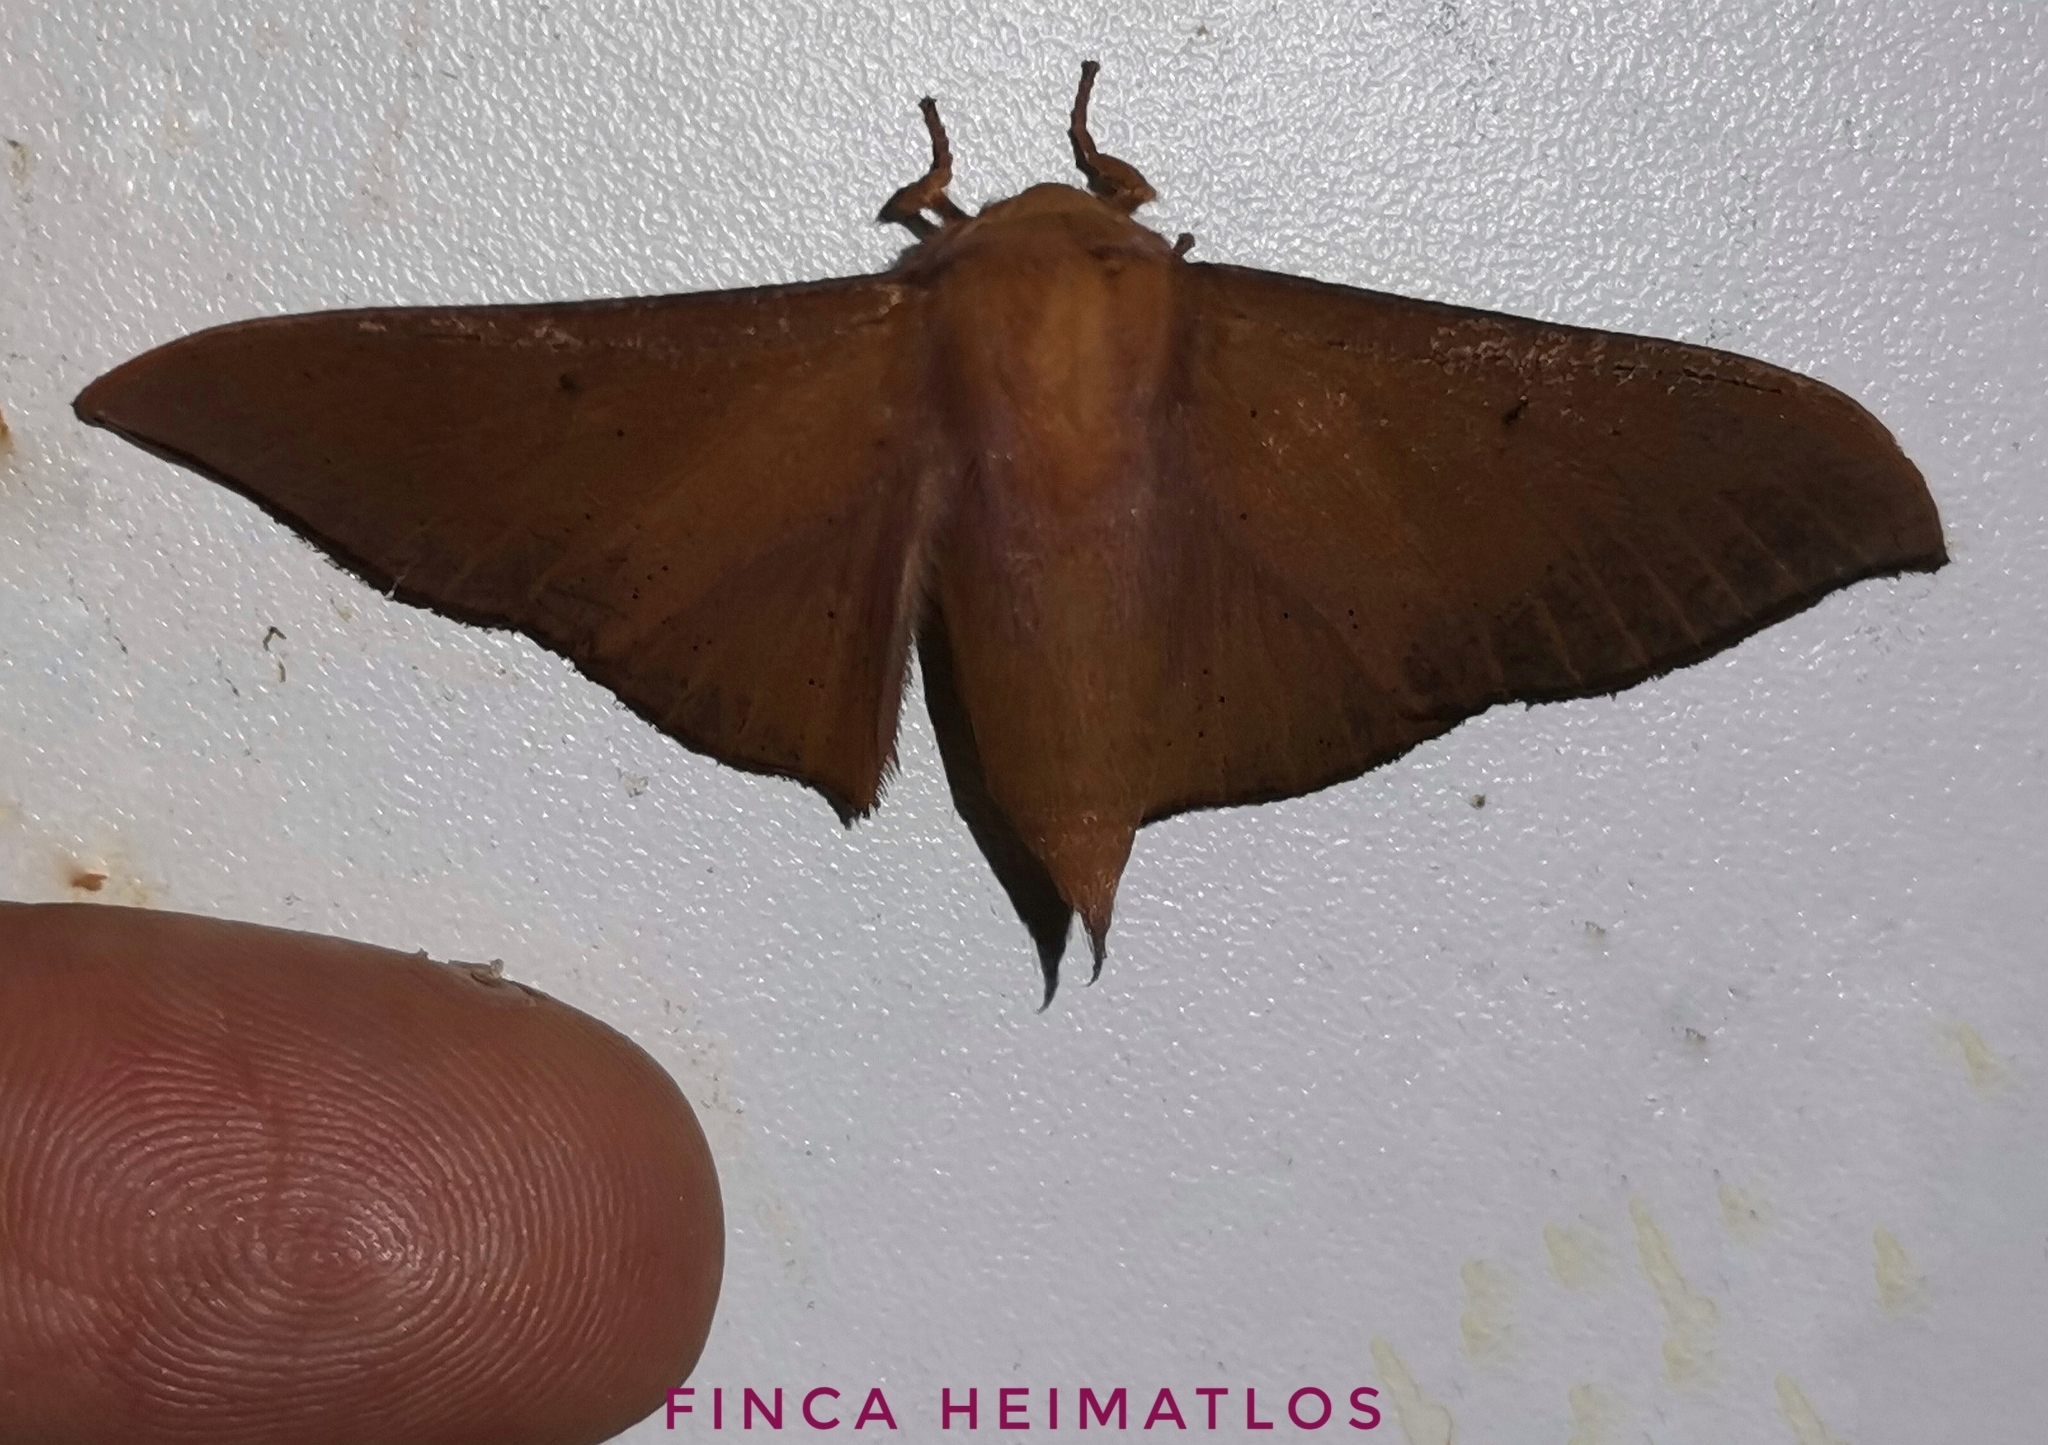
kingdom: Animalia
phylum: Arthropoda
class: Insecta
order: Lepidoptera
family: Mimallonidae
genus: Psychocampa
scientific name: Psychocampa
